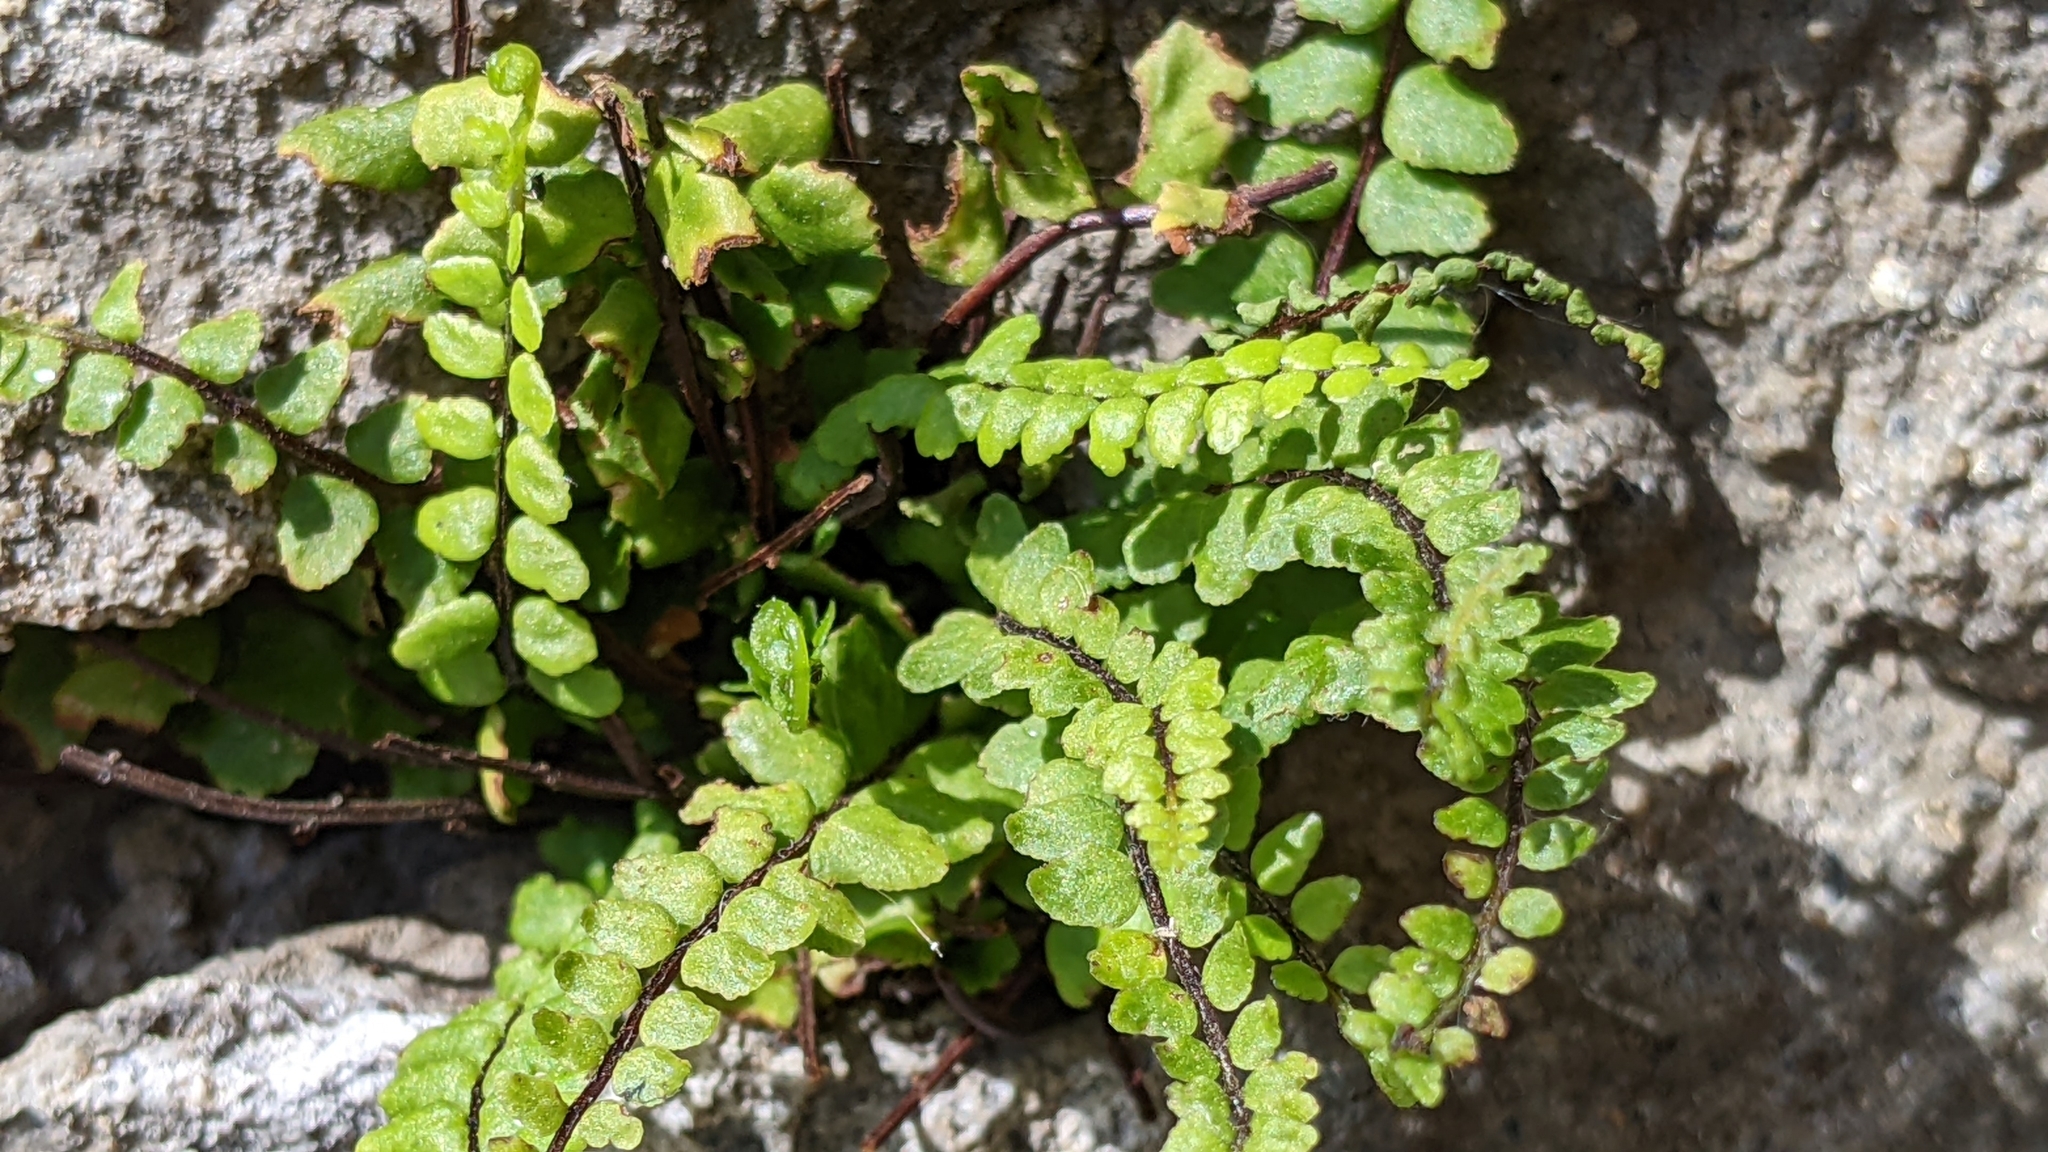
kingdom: Plantae
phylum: Tracheophyta
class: Polypodiopsida
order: Polypodiales
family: Aspleniaceae
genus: Asplenium
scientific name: Asplenium trichomanes
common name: Maidenhair spleenwort
